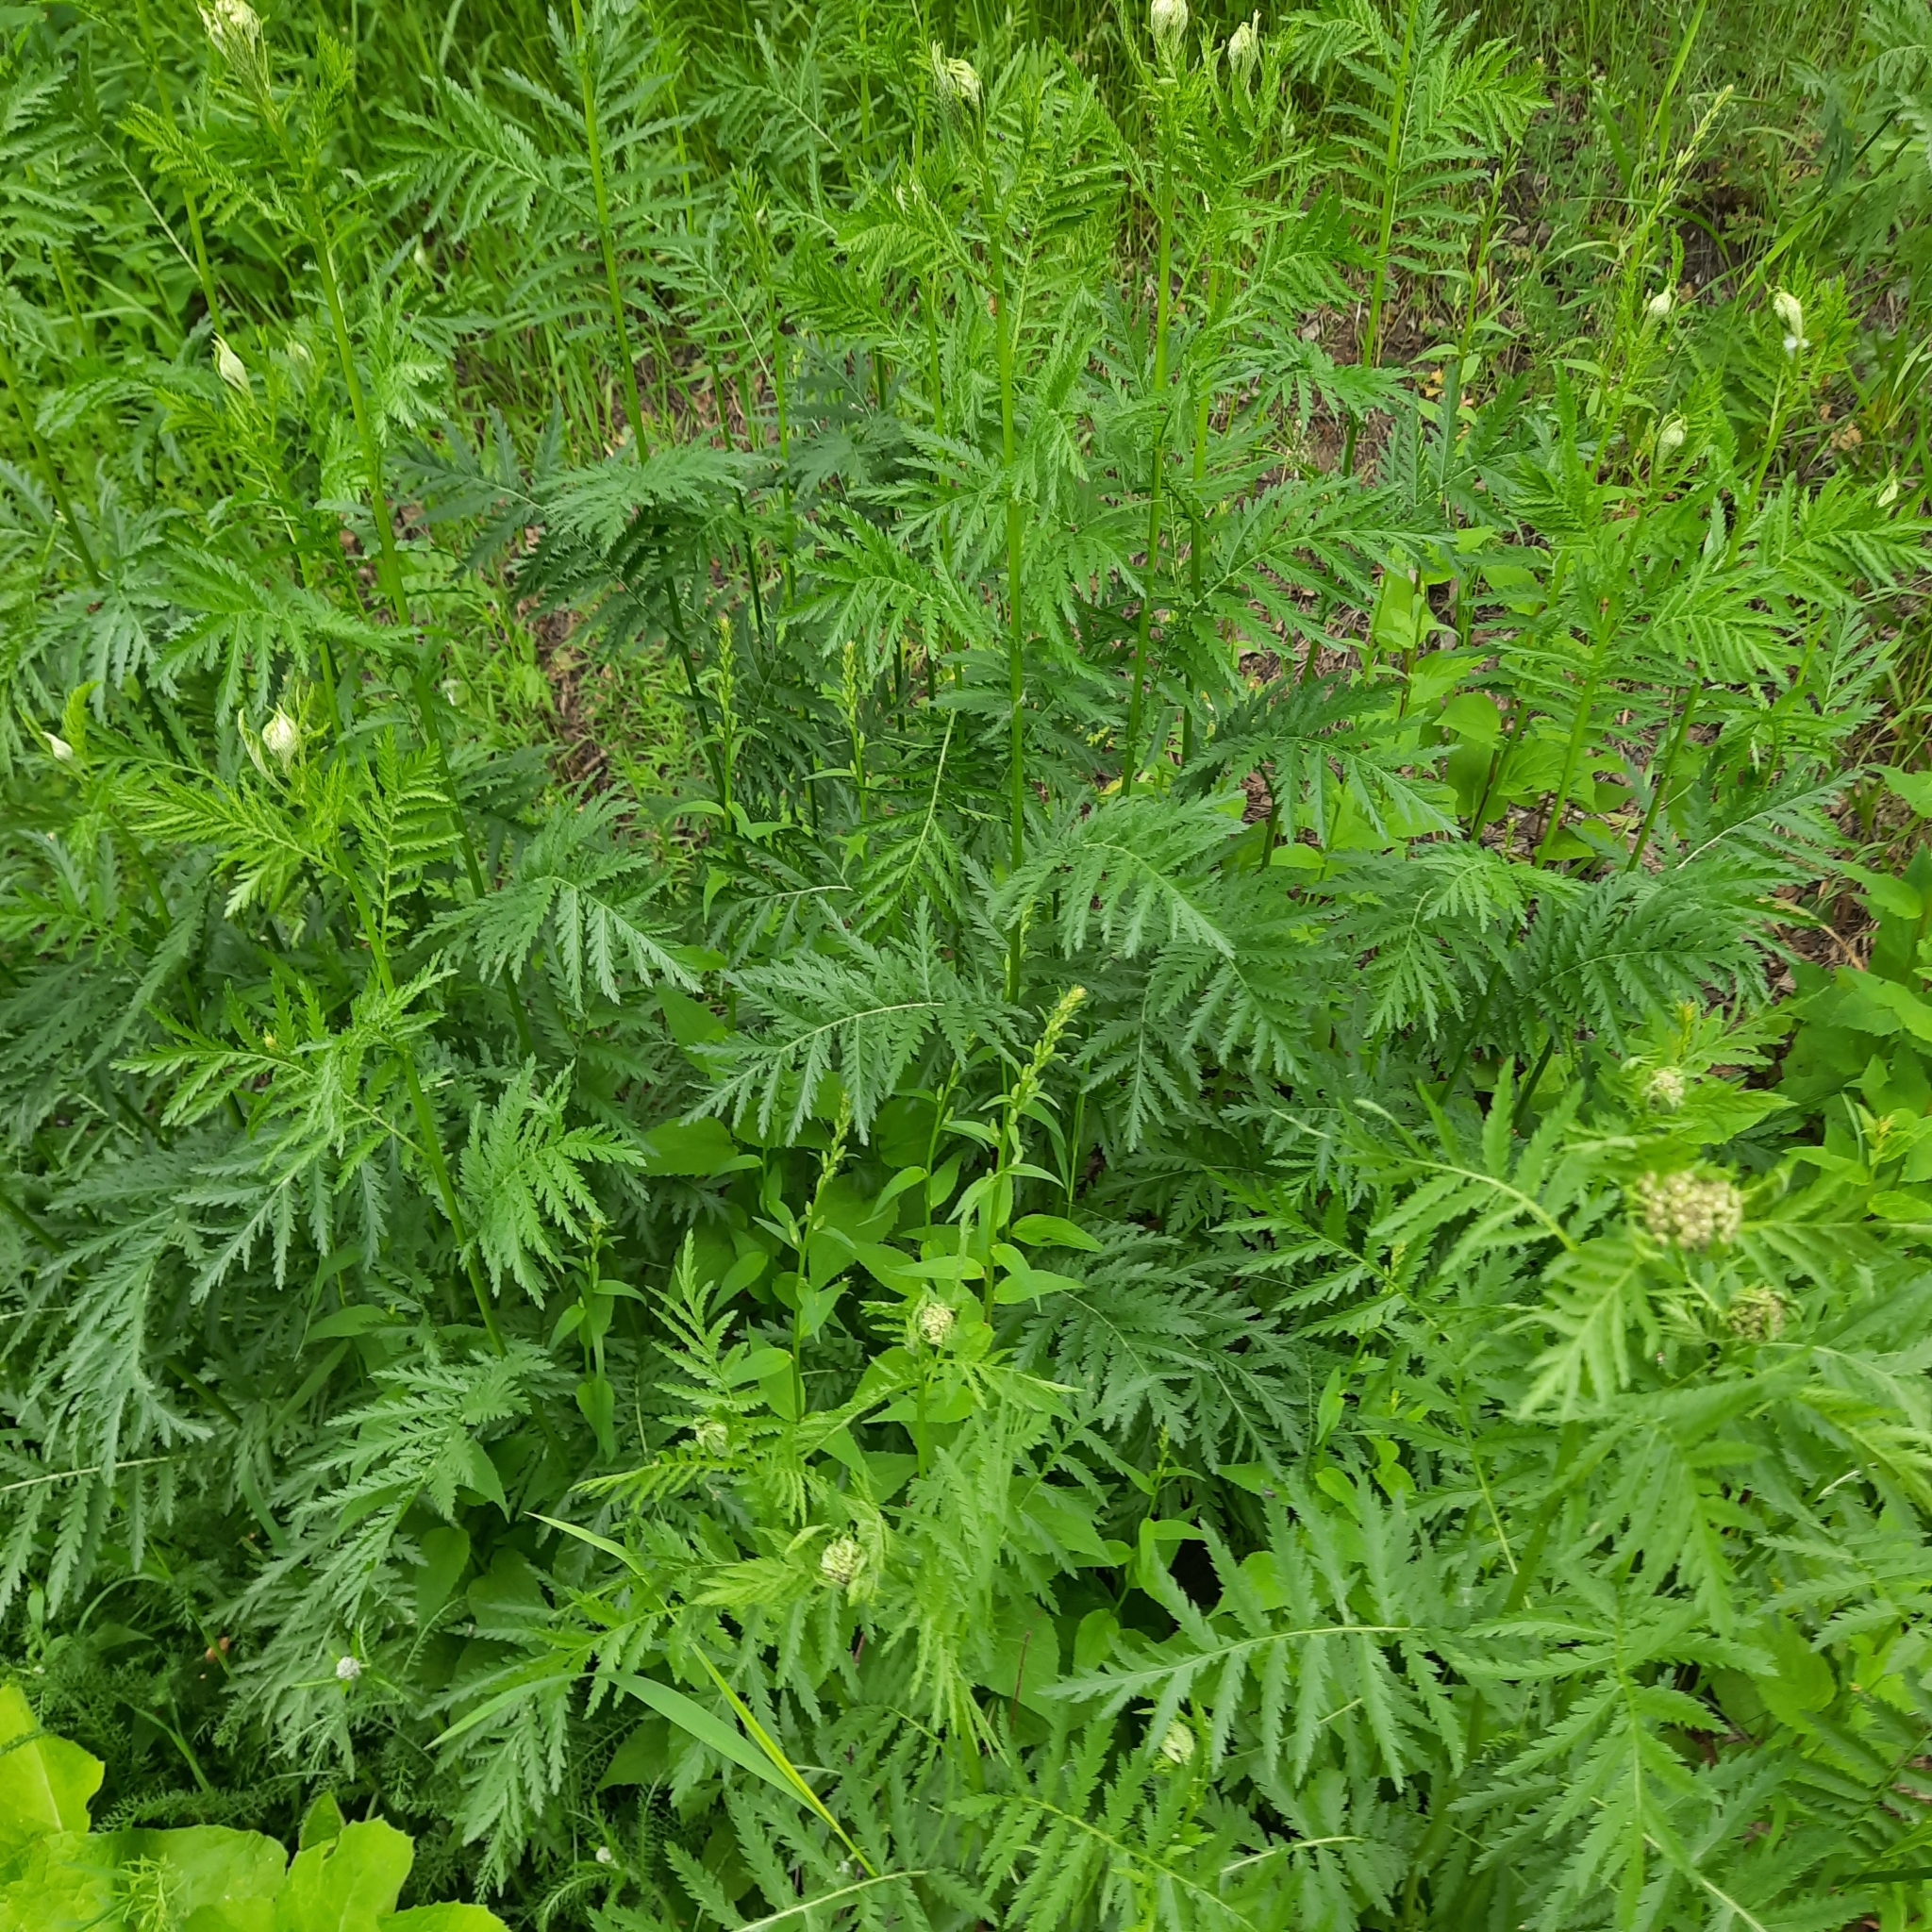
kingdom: Plantae
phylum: Tracheophyta
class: Magnoliopsida
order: Asterales
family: Asteraceae
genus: Tanacetum
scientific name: Tanacetum vulgare
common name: Common tansy
